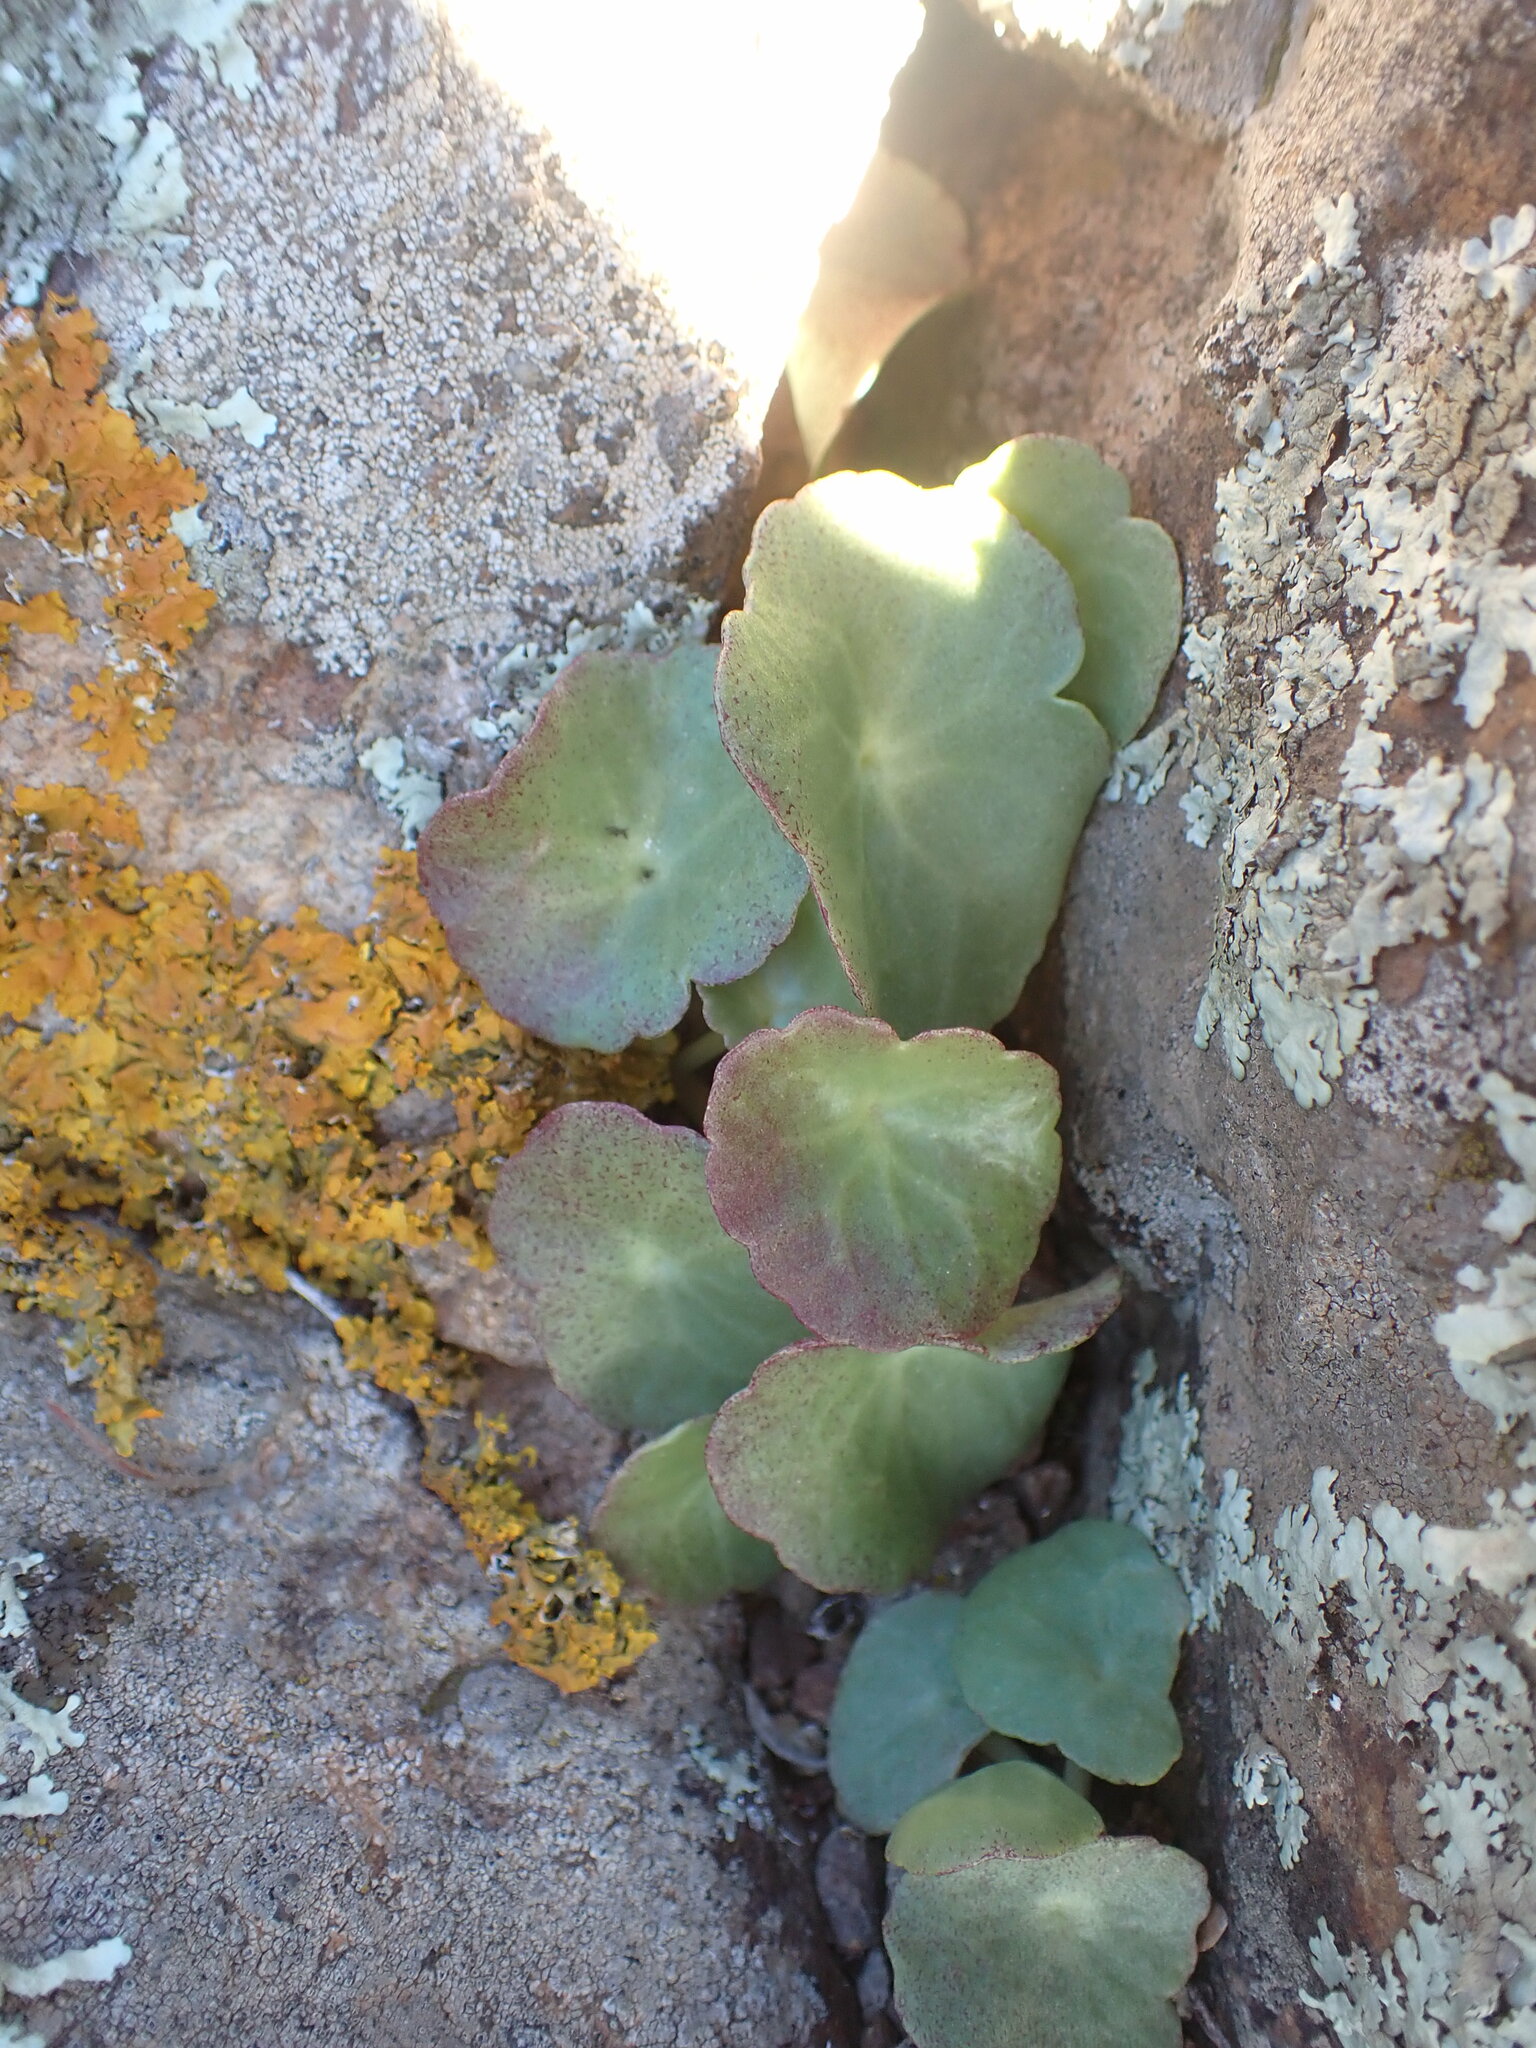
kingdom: Plantae
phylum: Tracheophyta
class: Magnoliopsida
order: Saxifragales
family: Crassulaceae
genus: Umbilicus
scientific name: Umbilicus rupestris
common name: Navelwort
